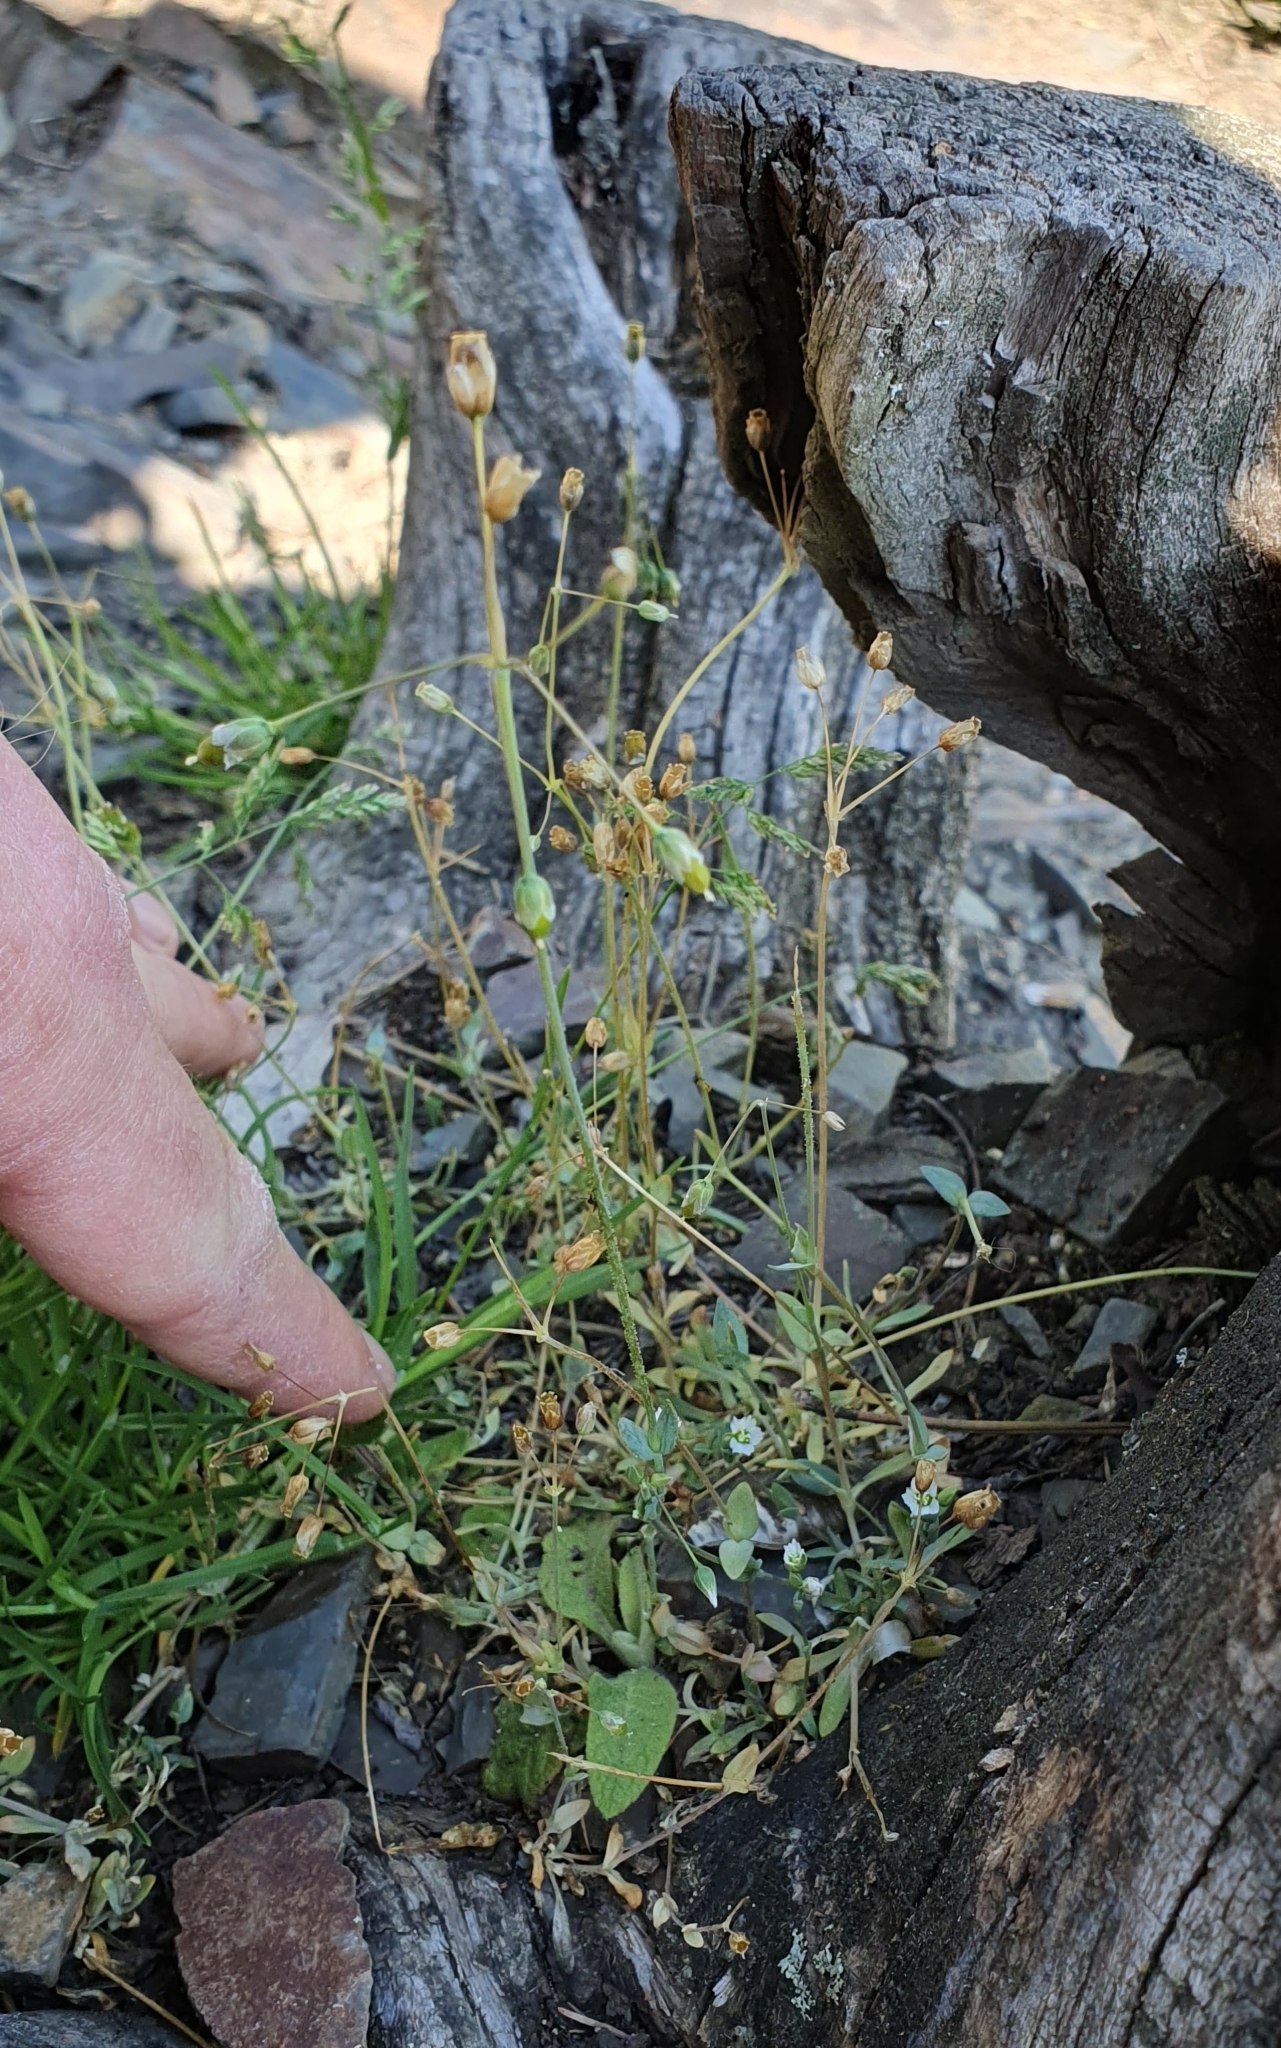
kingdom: Plantae
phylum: Tracheophyta
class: Magnoliopsida
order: Caryophyllales
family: Caryophyllaceae
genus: Holosteum
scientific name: Holosteum umbellatum
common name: Jagged chickweed
